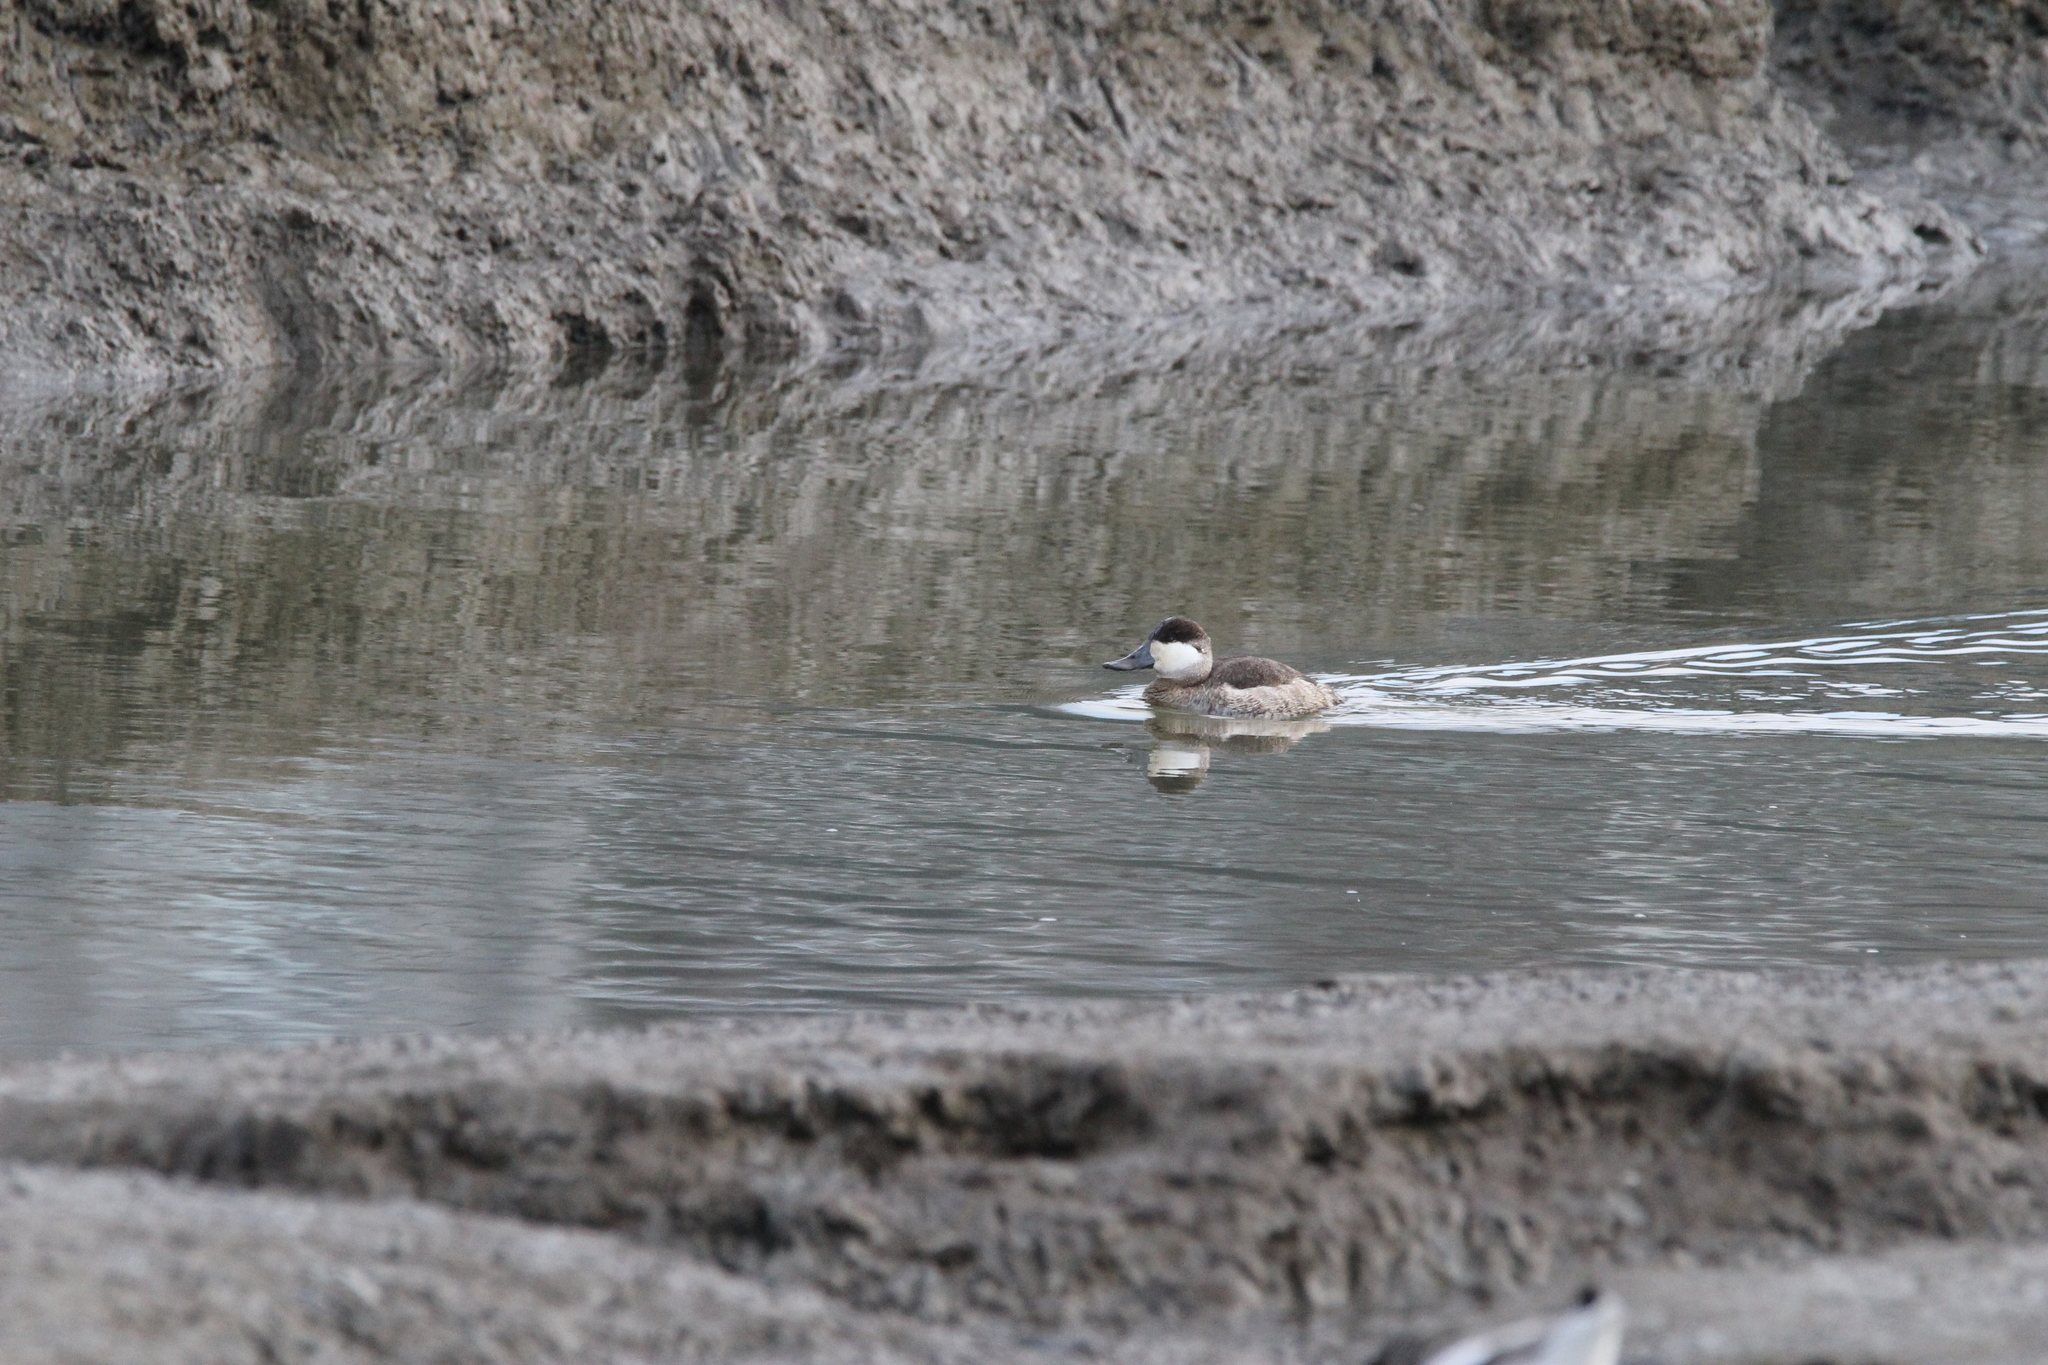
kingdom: Animalia
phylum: Chordata
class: Aves
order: Anseriformes
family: Anatidae
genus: Oxyura
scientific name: Oxyura jamaicensis
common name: Ruddy duck
